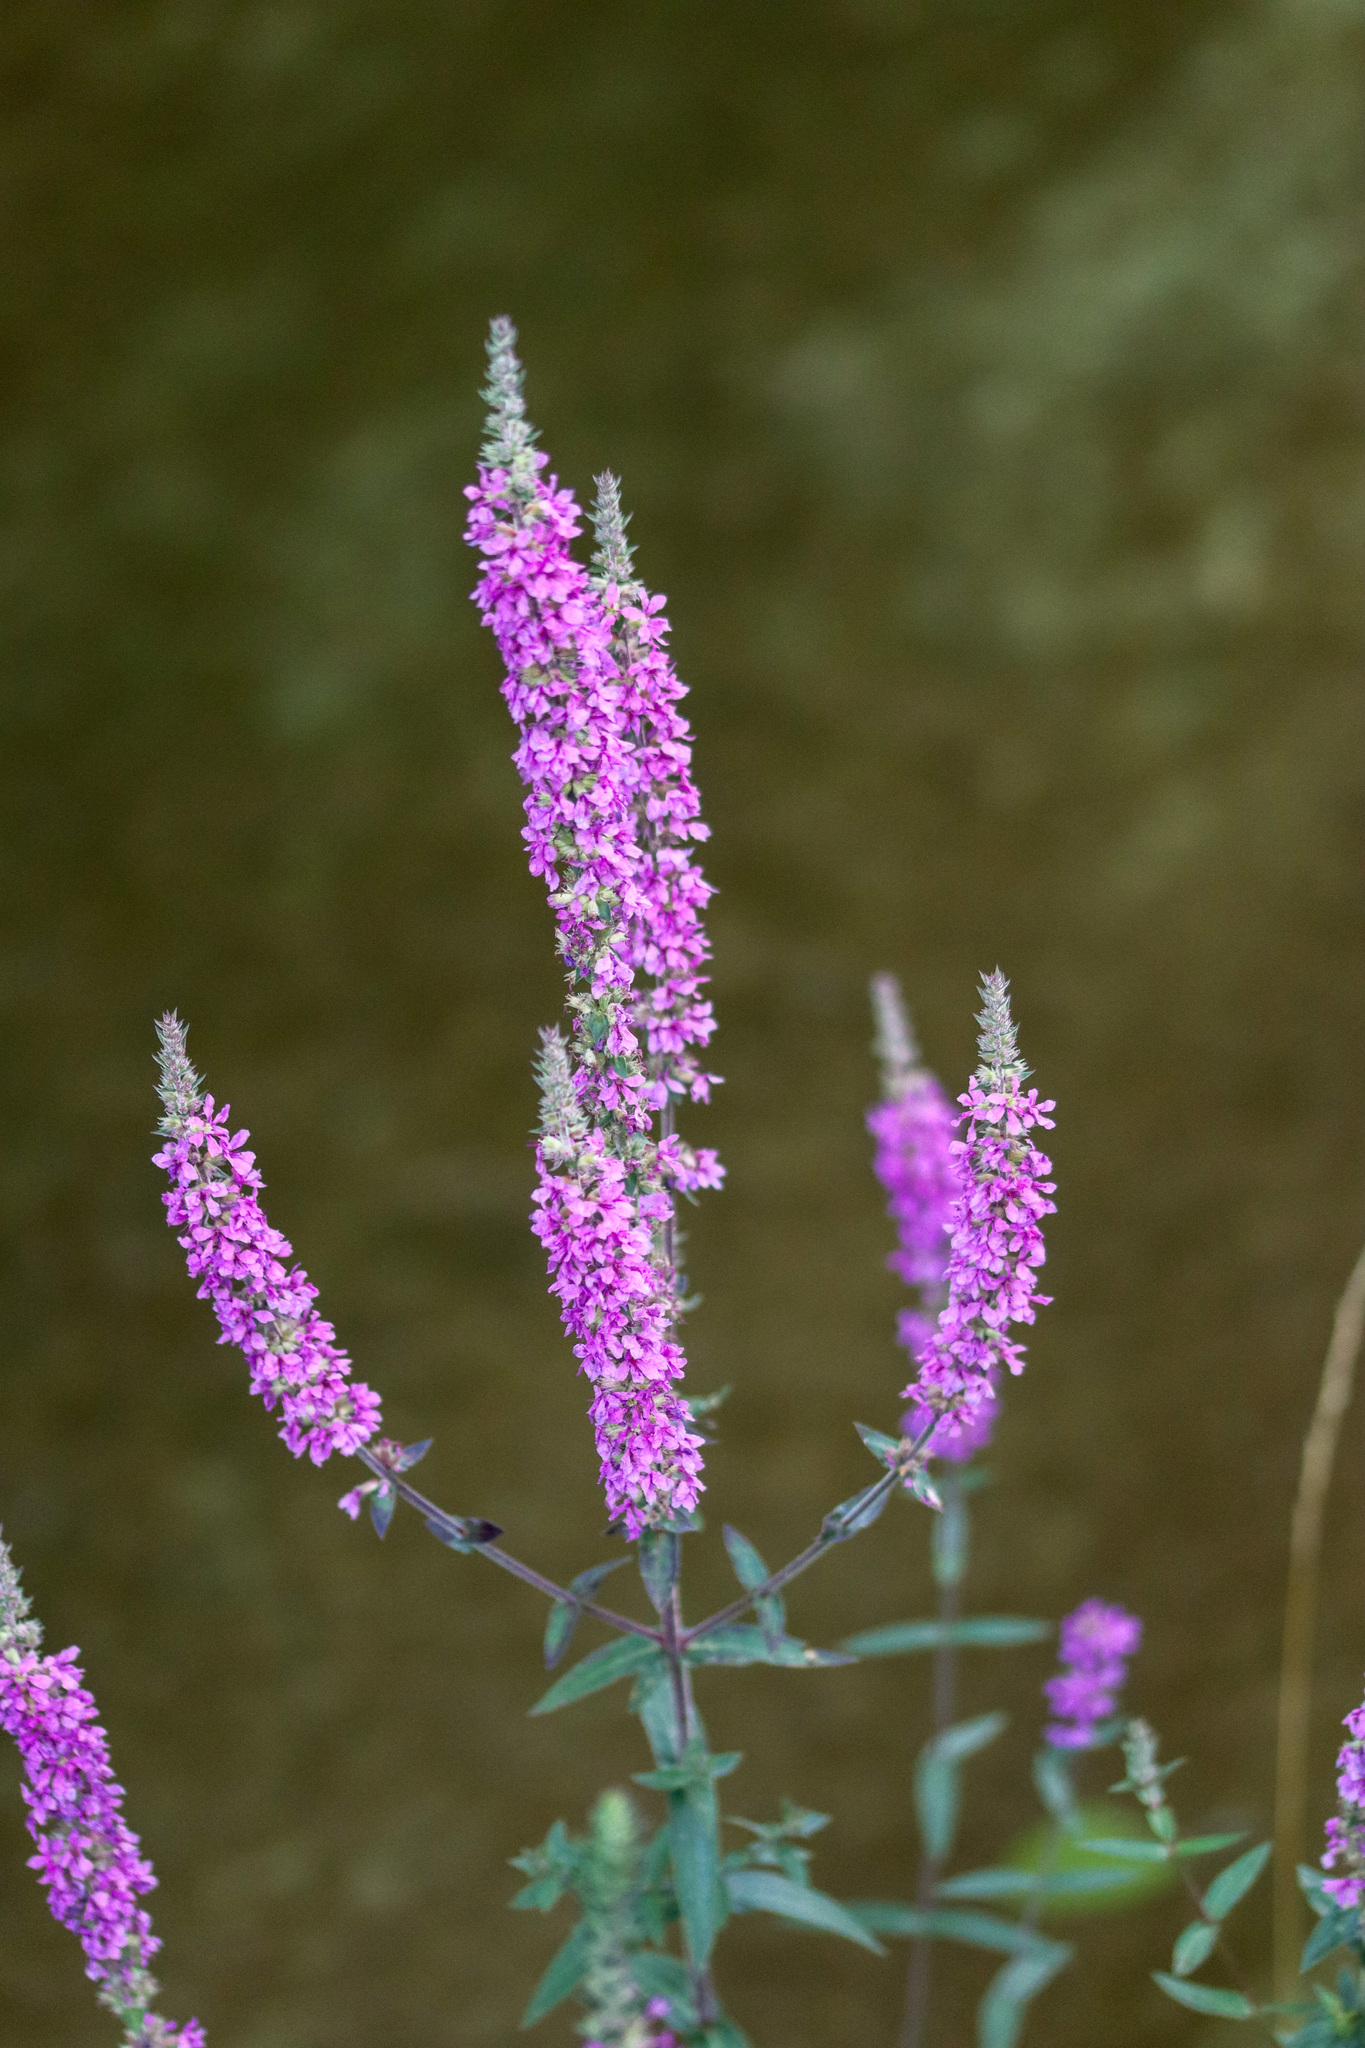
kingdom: Plantae
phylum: Tracheophyta
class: Magnoliopsida
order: Myrtales
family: Lythraceae
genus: Lythrum
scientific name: Lythrum salicaria
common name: Purple loosestrife
